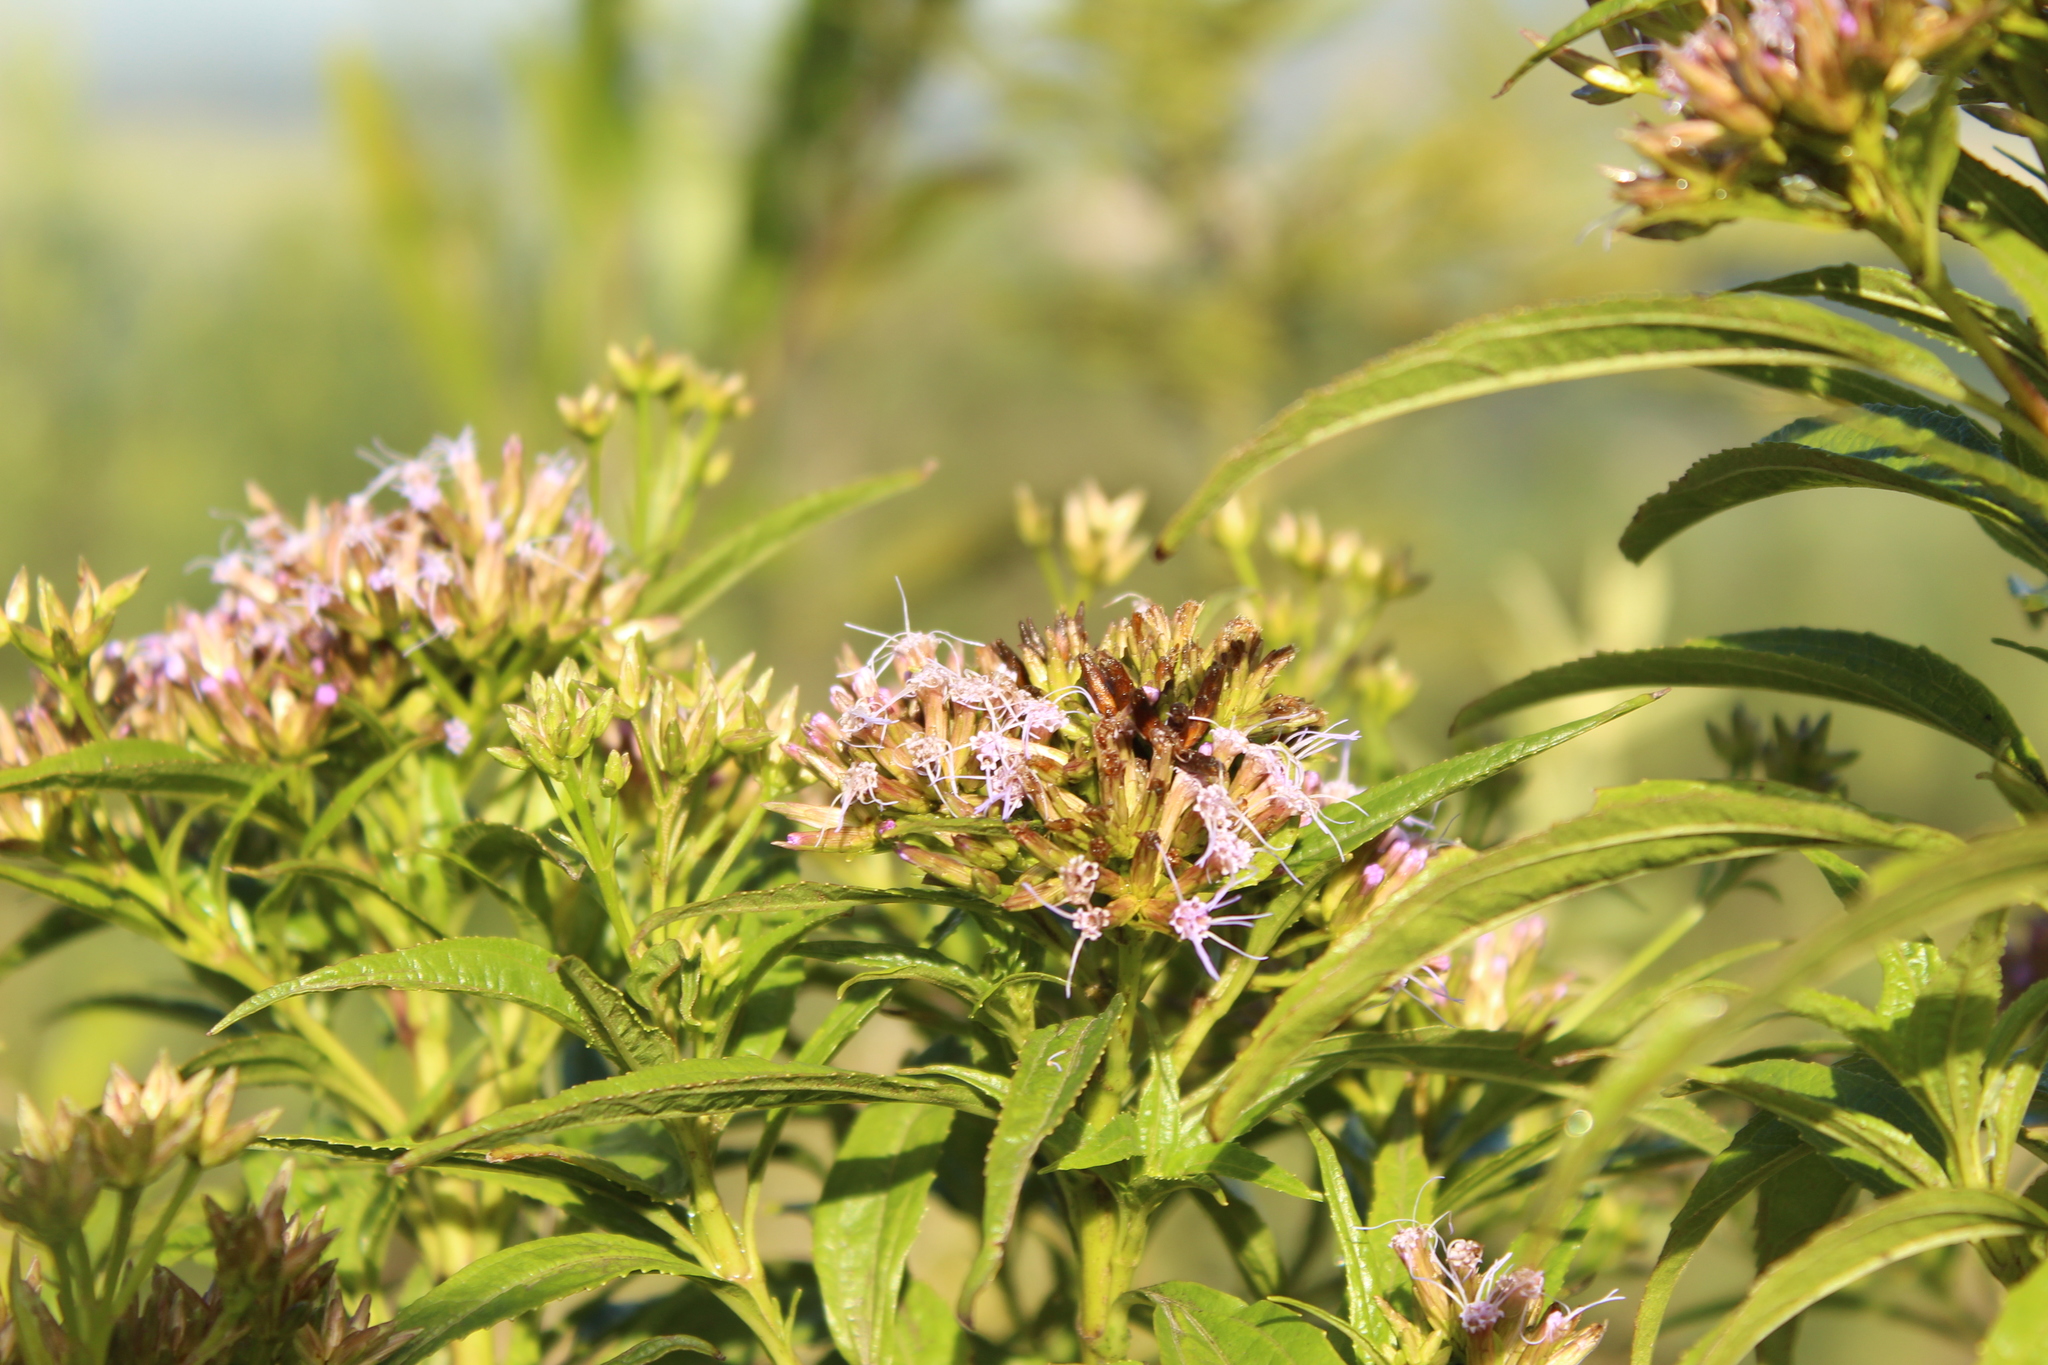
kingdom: Plantae
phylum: Tracheophyta
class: Magnoliopsida
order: Asterales
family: Asteraceae
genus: Chromolaena
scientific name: Chromolaena perglabra
